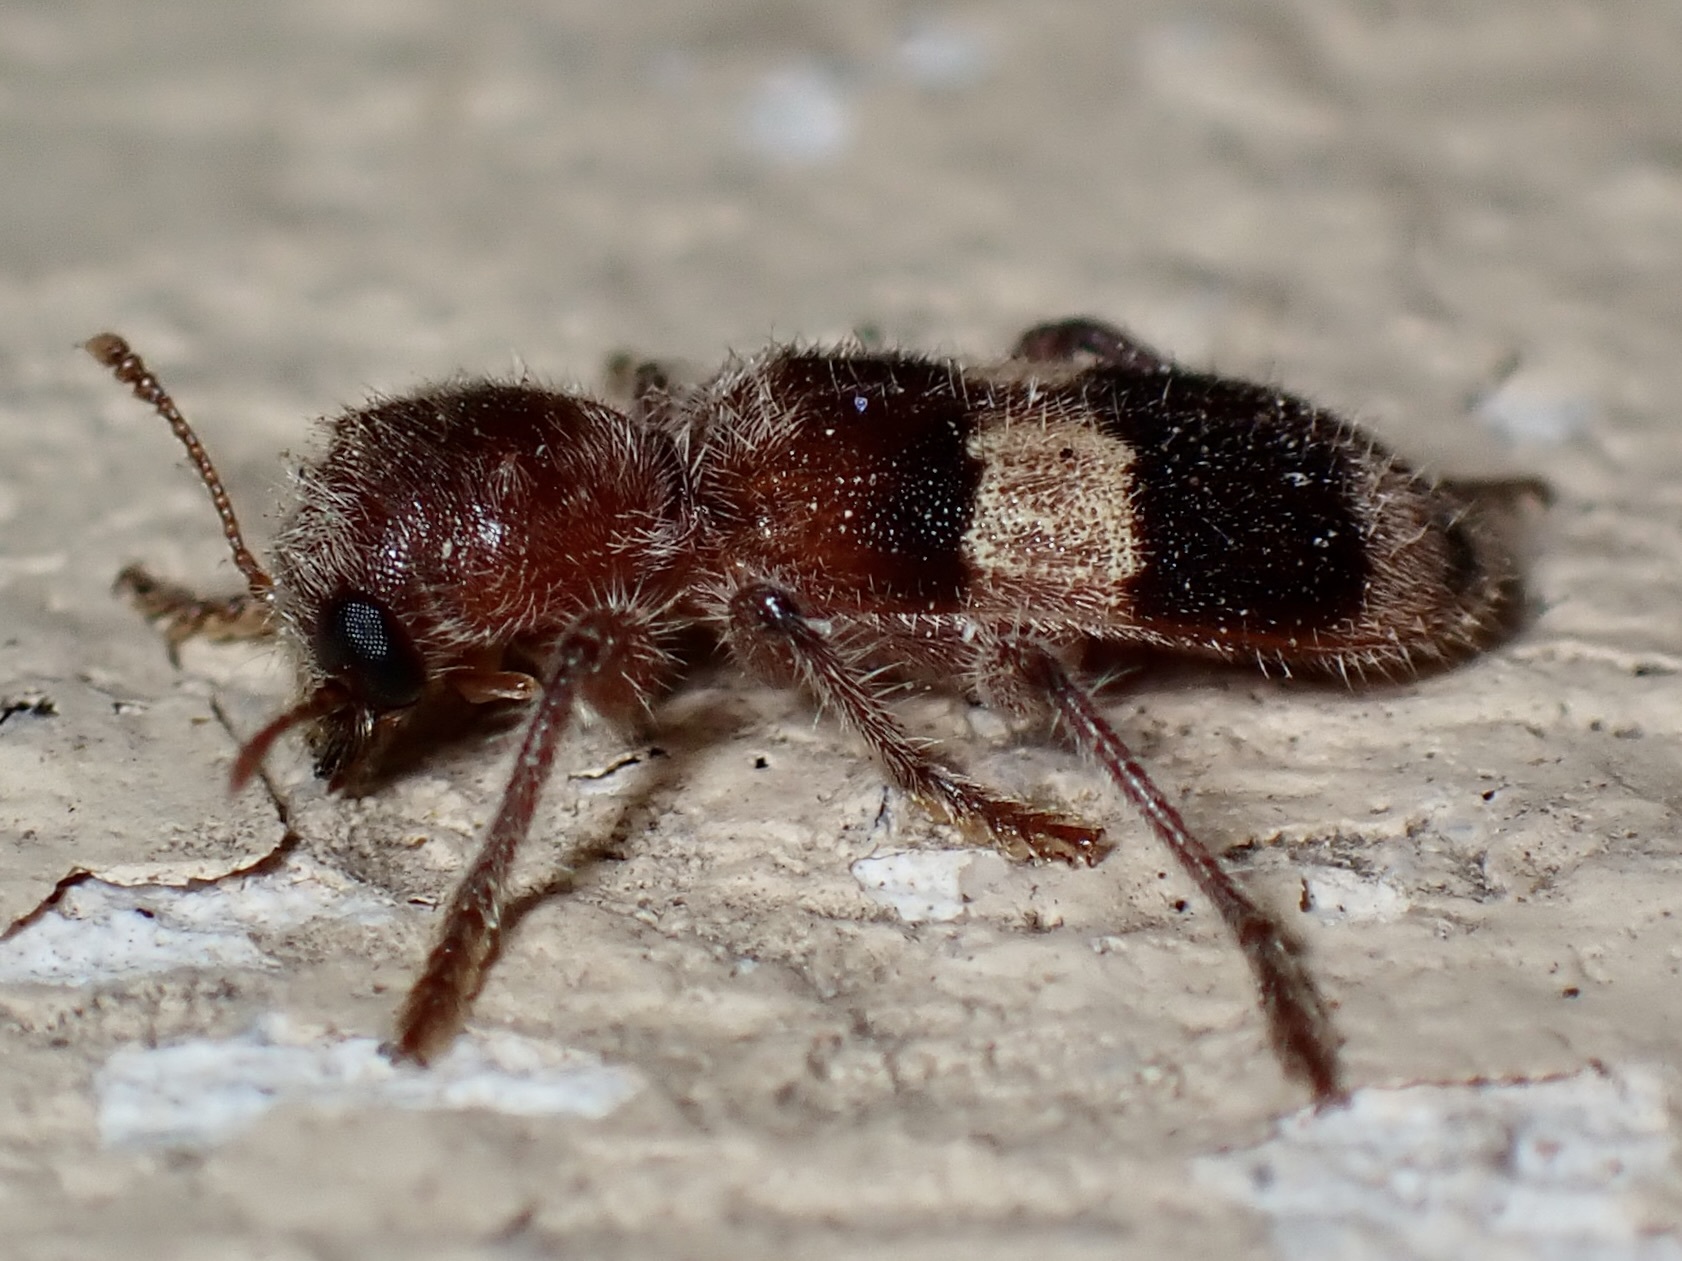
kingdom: Animalia
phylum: Arthropoda
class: Insecta
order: Coleoptera
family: Cleridae
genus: Enoclerus
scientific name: Enoclerus quadrisignatus
